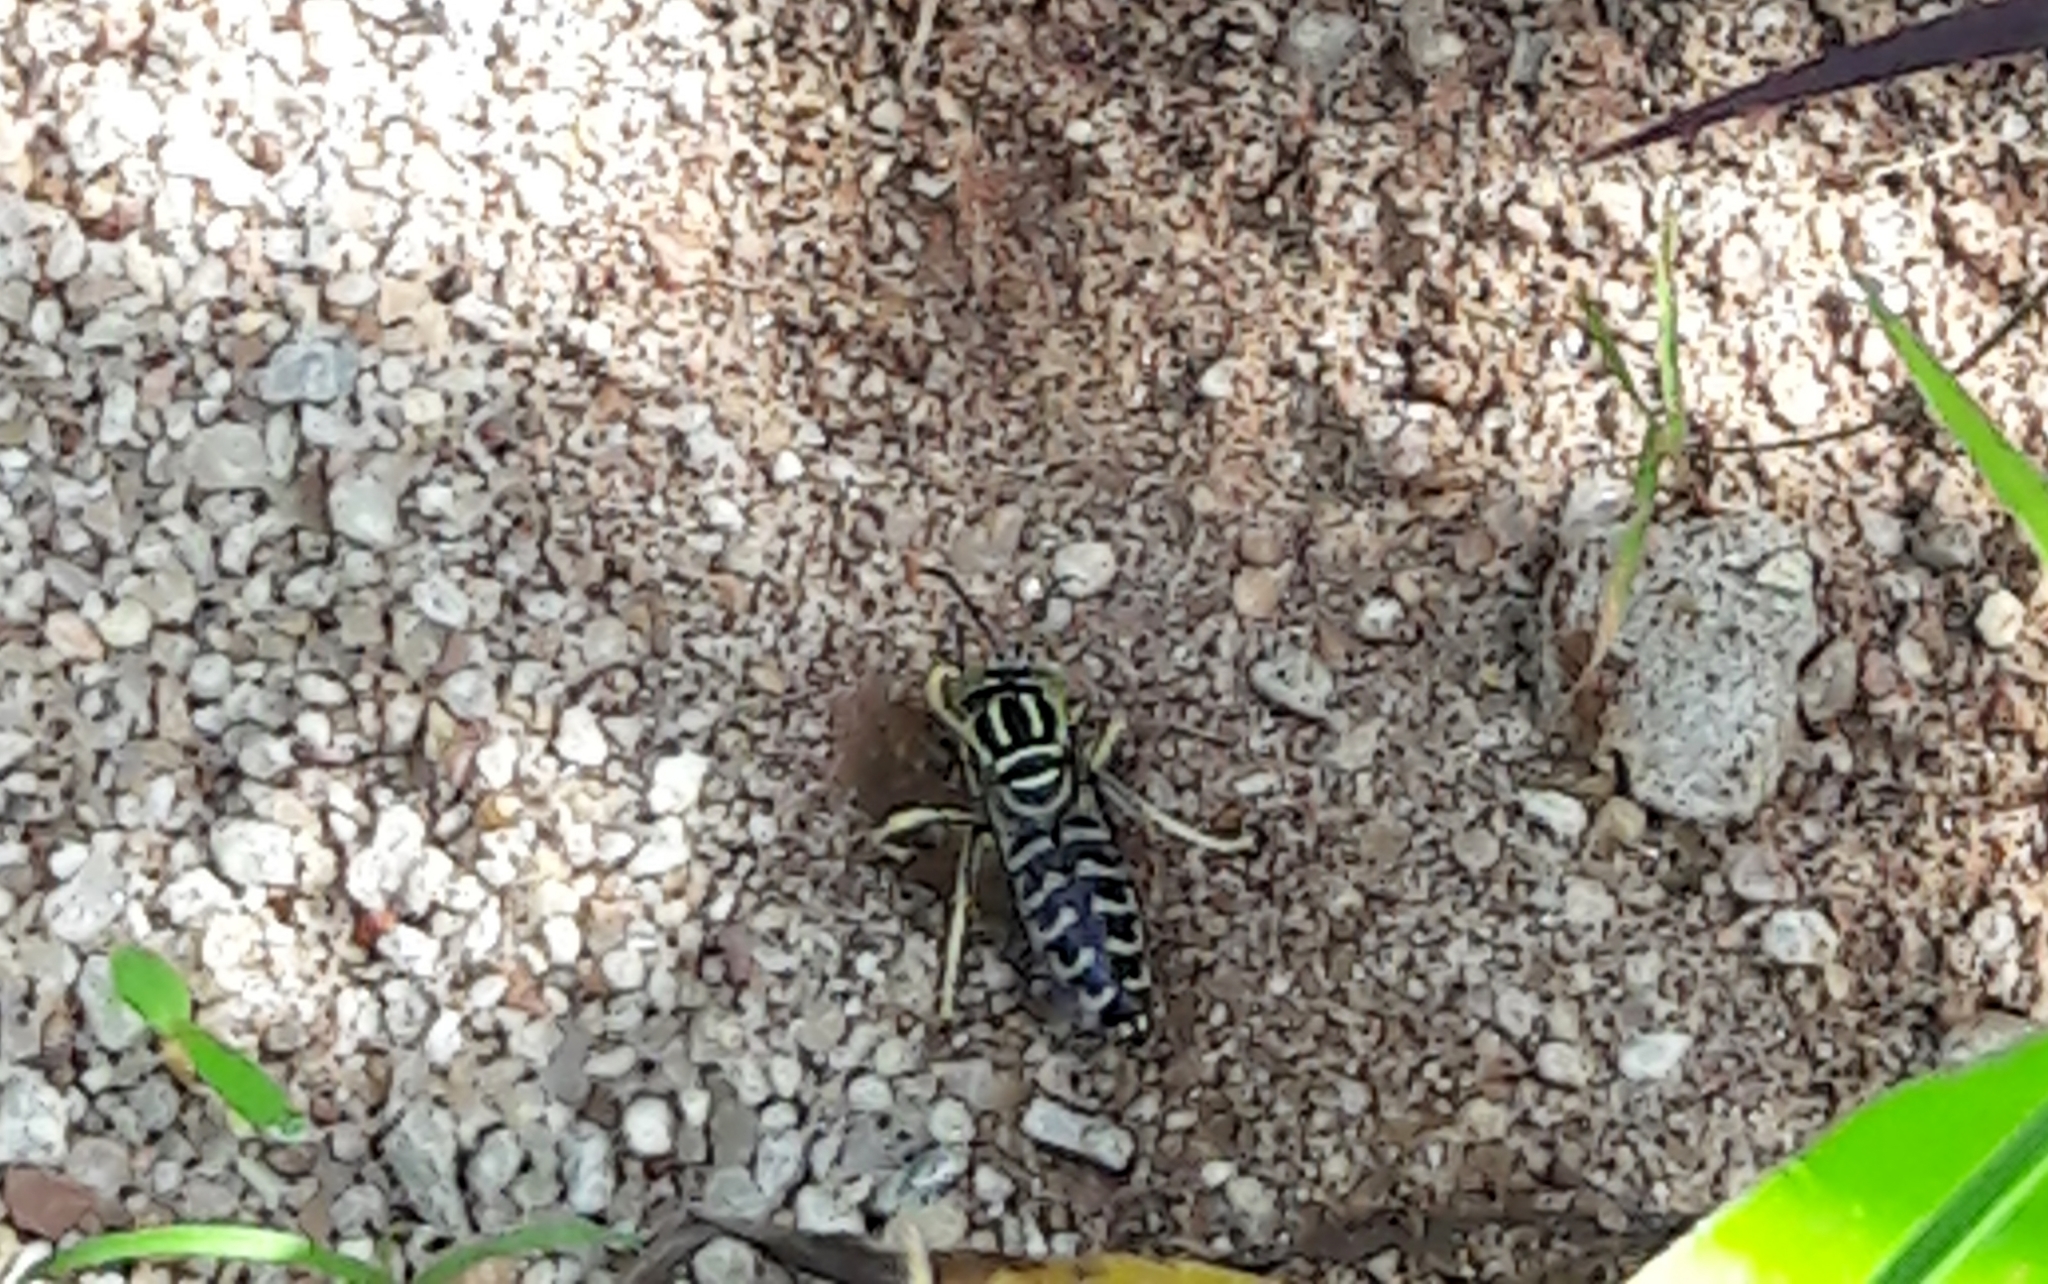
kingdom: Animalia
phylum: Arthropoda
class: Insecta
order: Hymenoptera
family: Crabronidae
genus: Stictia
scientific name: Stictia signata
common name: Sand wasp
